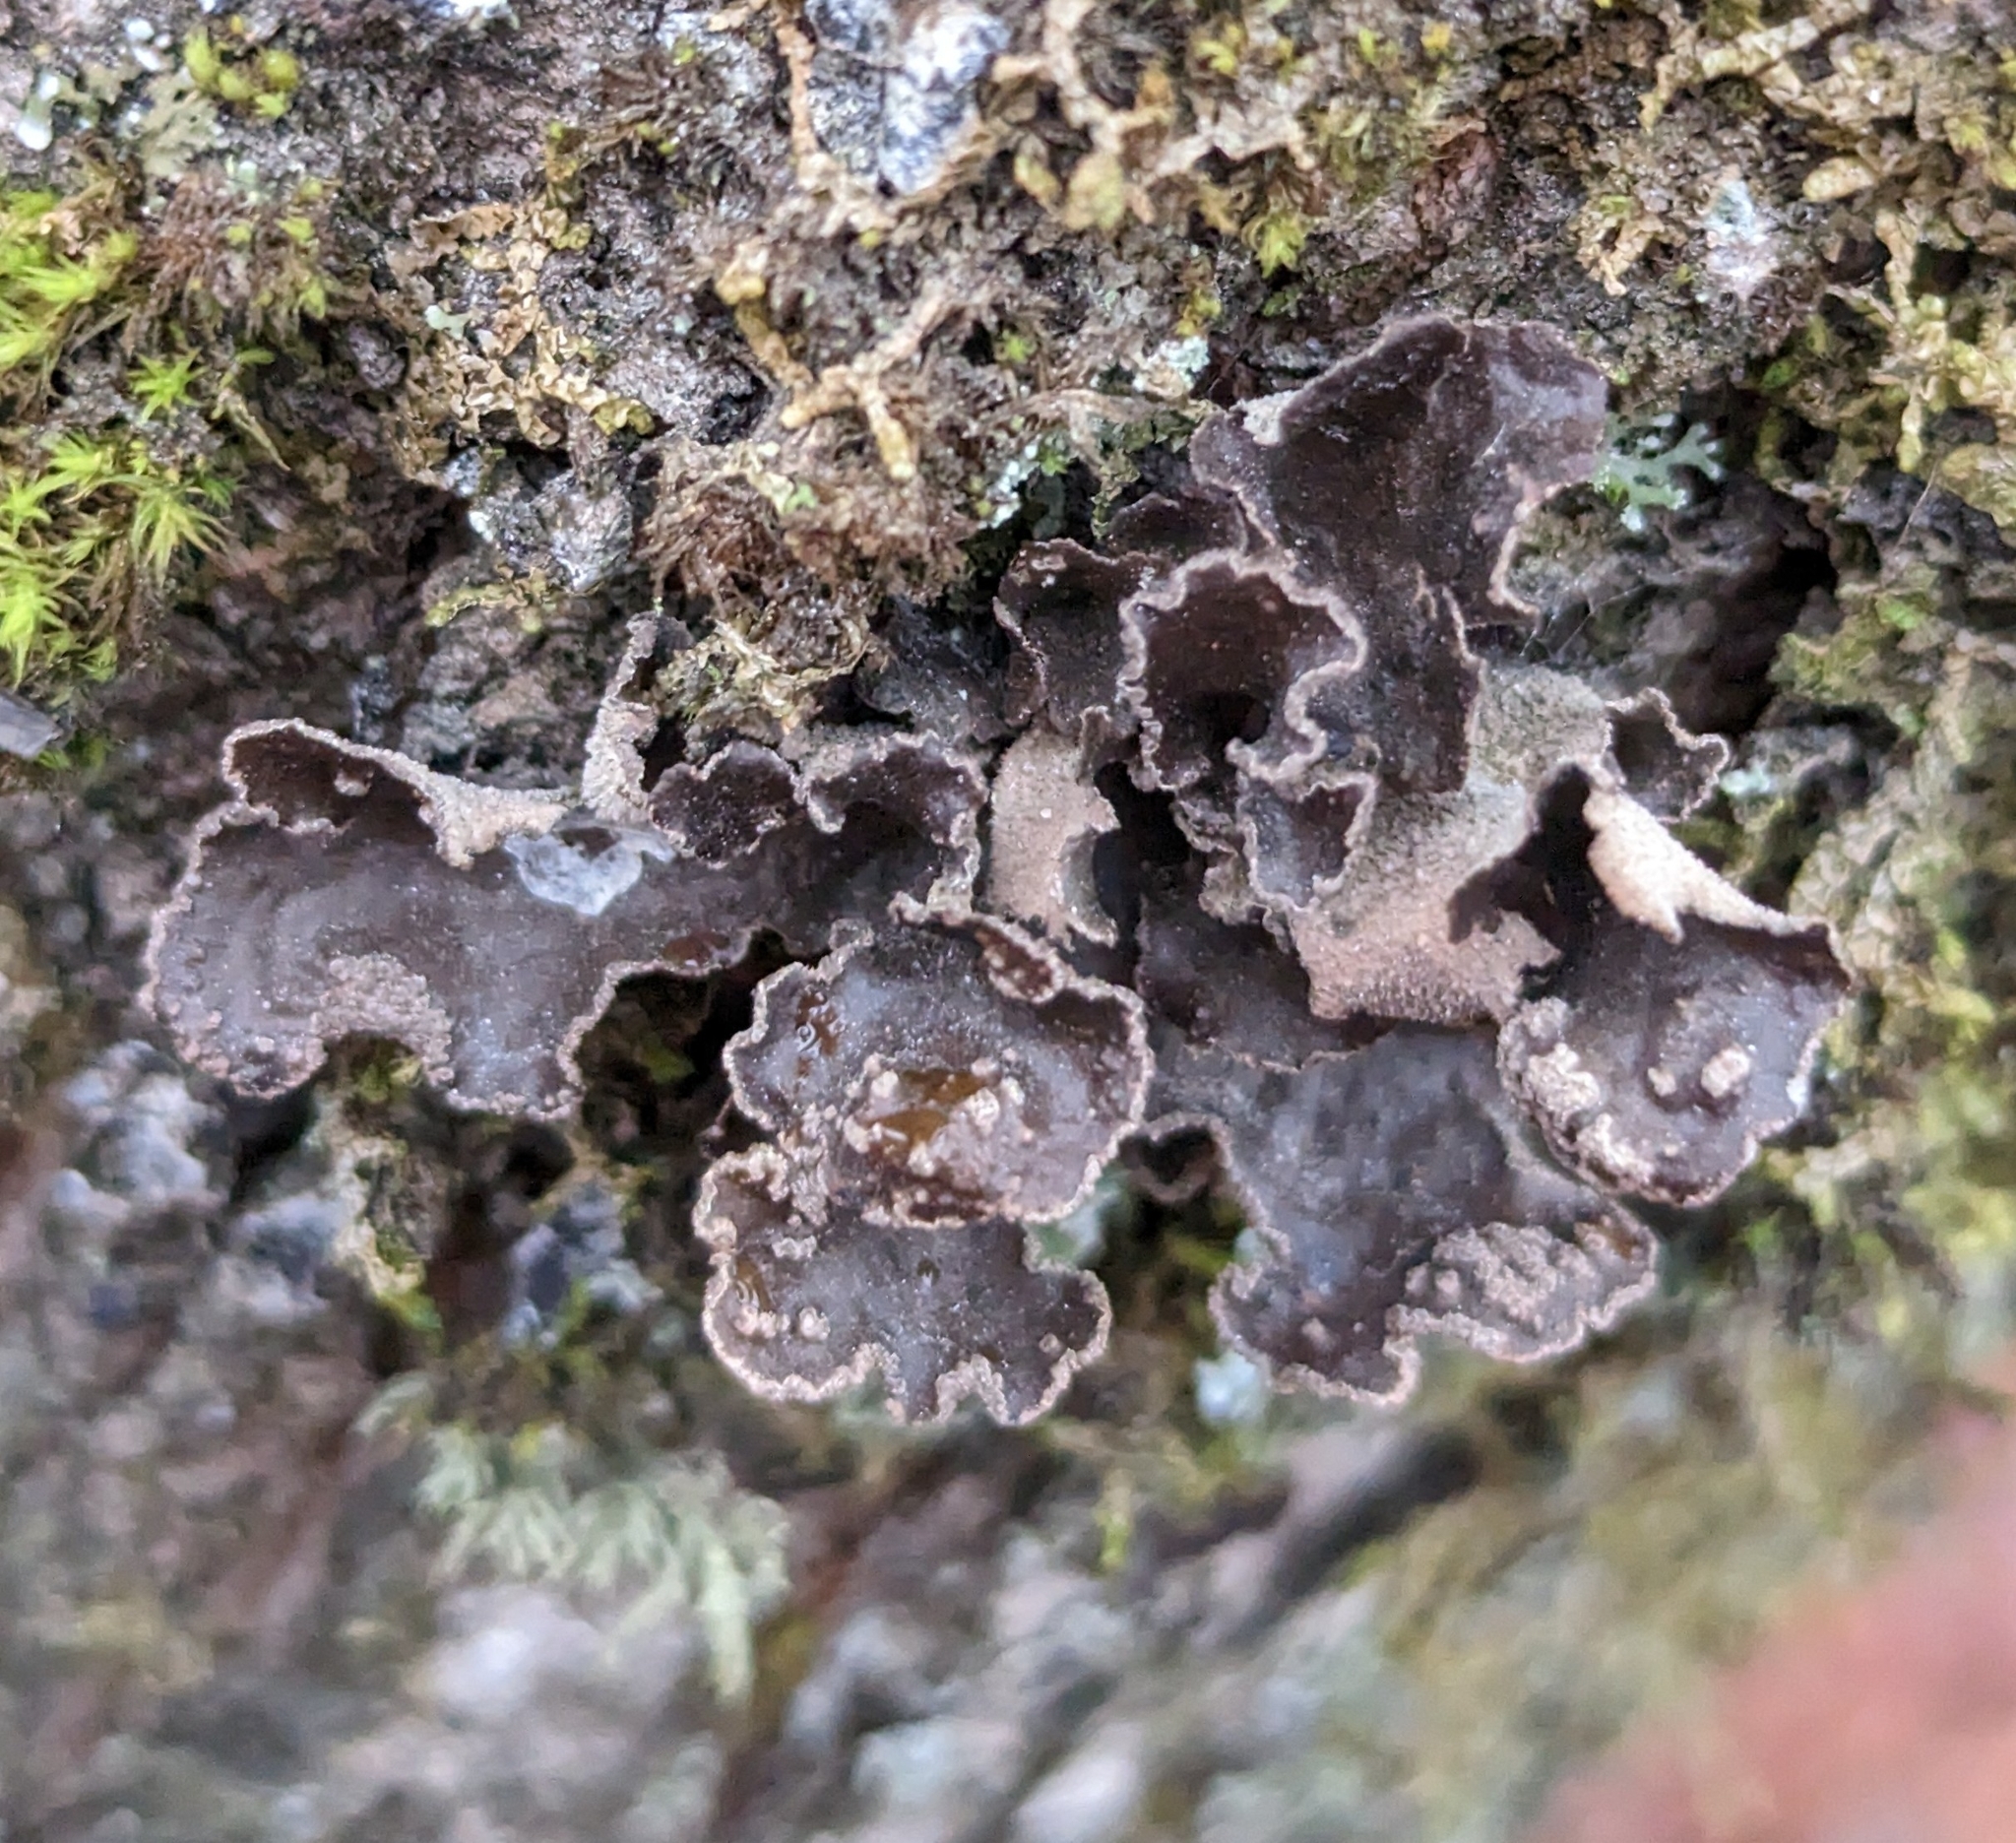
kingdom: Fungi
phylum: Ascomycota
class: Lecanoromycetes
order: Peltigerales
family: Lobariaceae
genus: Sticta
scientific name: Sticta limbata
